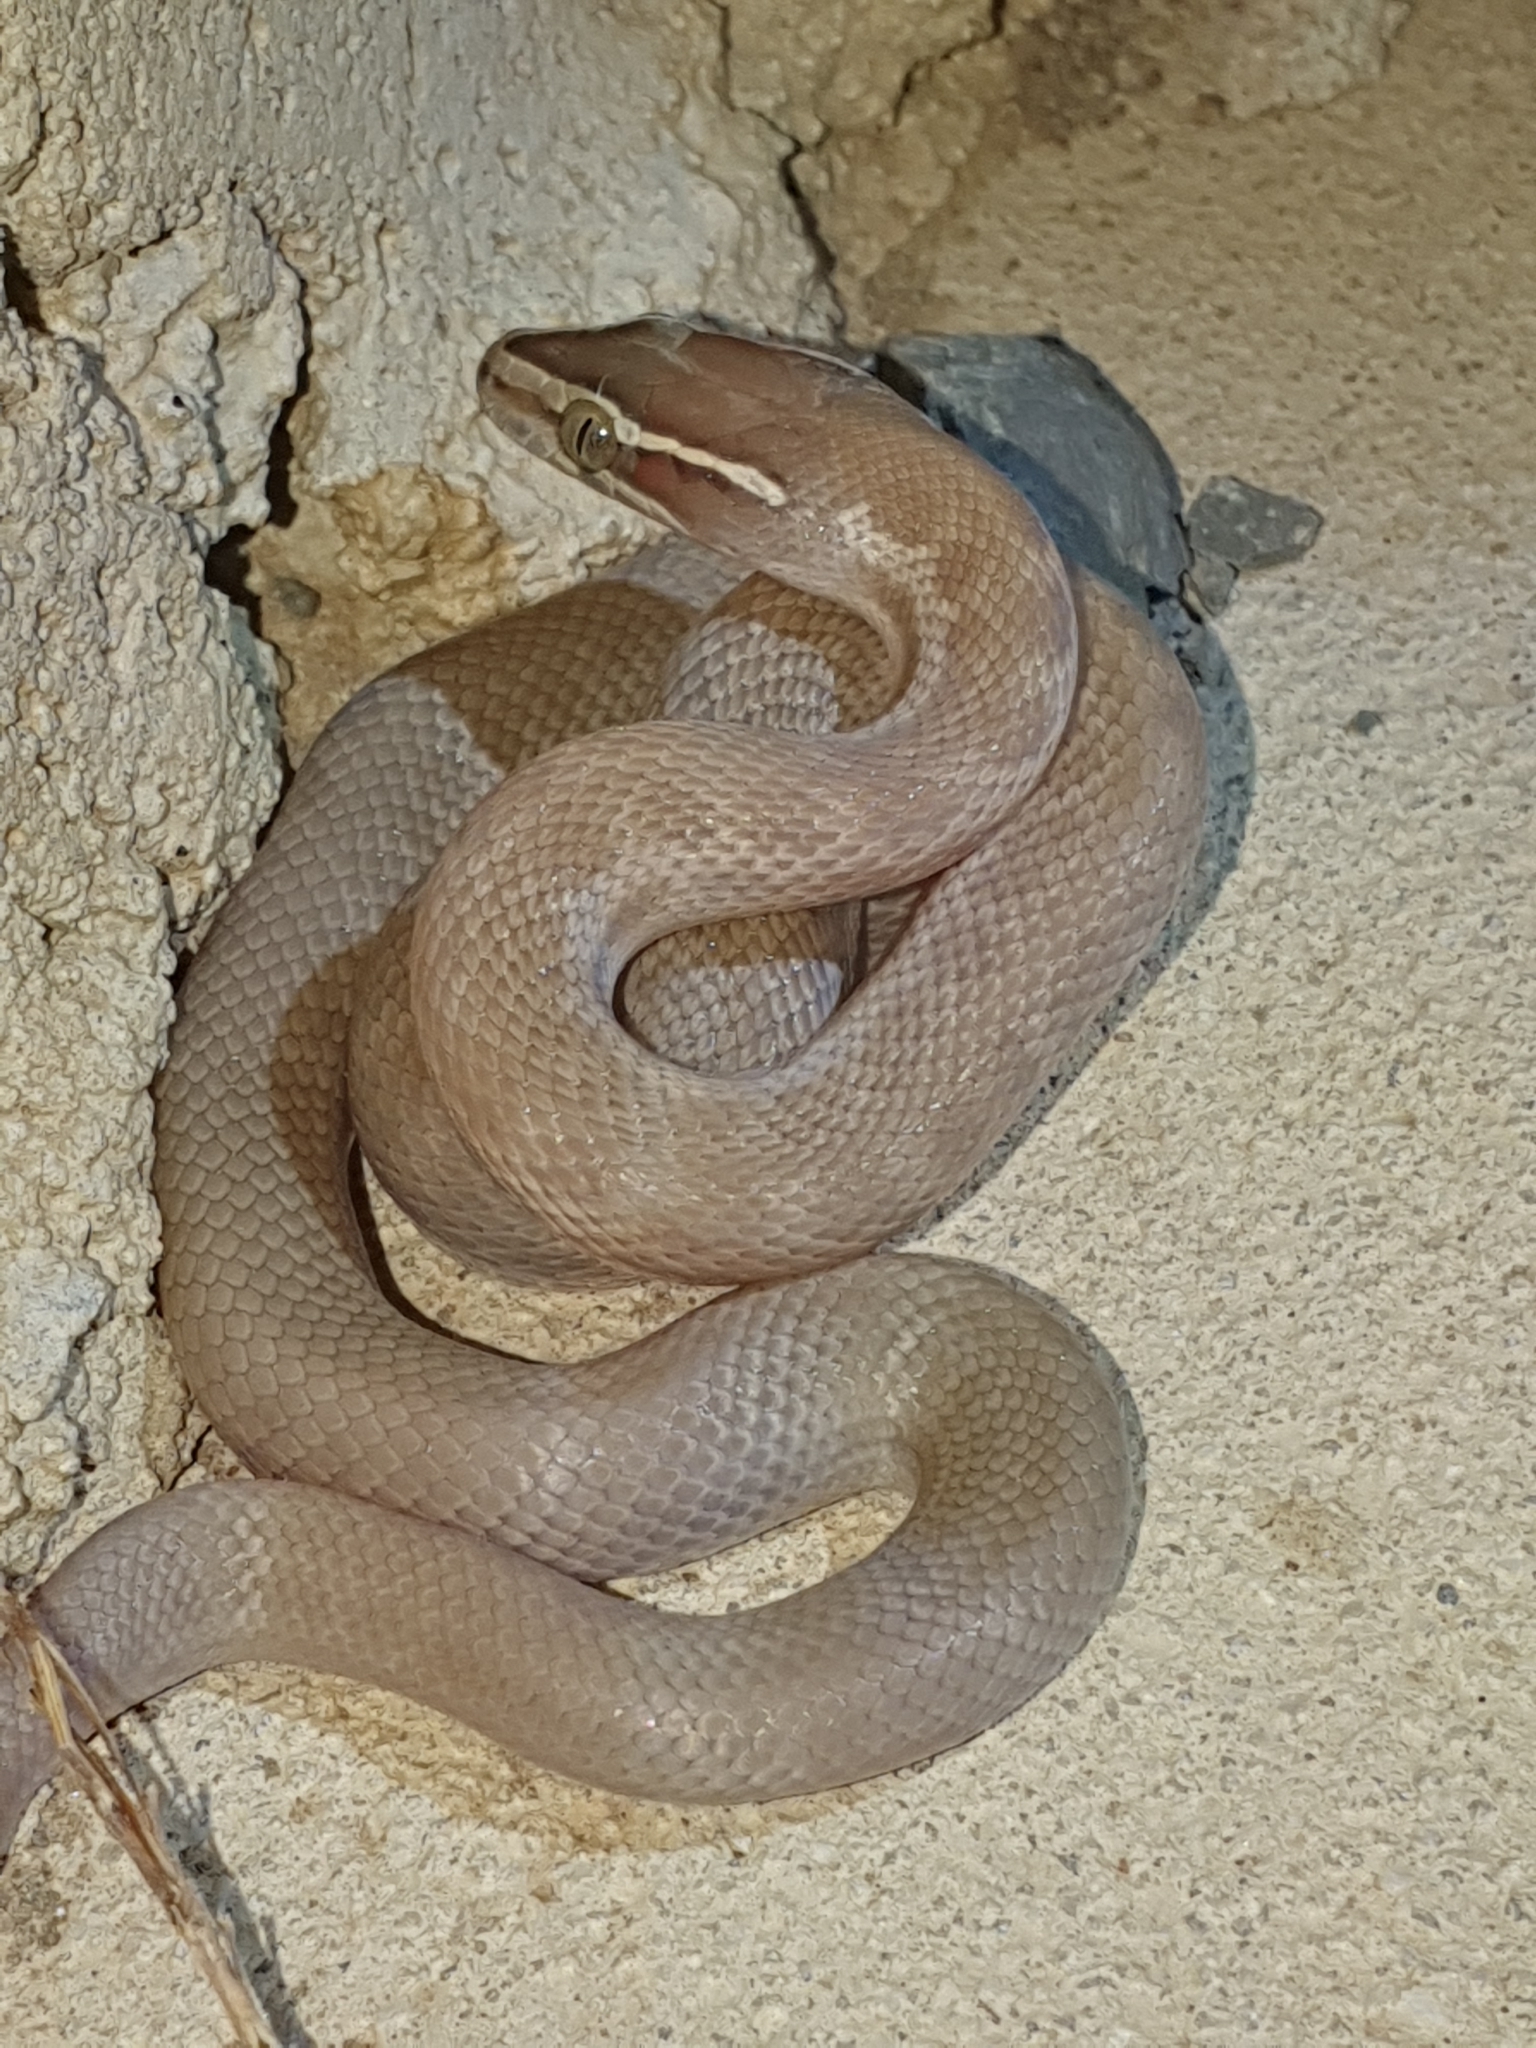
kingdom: Animalia
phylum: Chordata
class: Squamata
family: Lamprophiidae
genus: Boaedon
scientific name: Boaedon capensis
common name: Brown house snake
